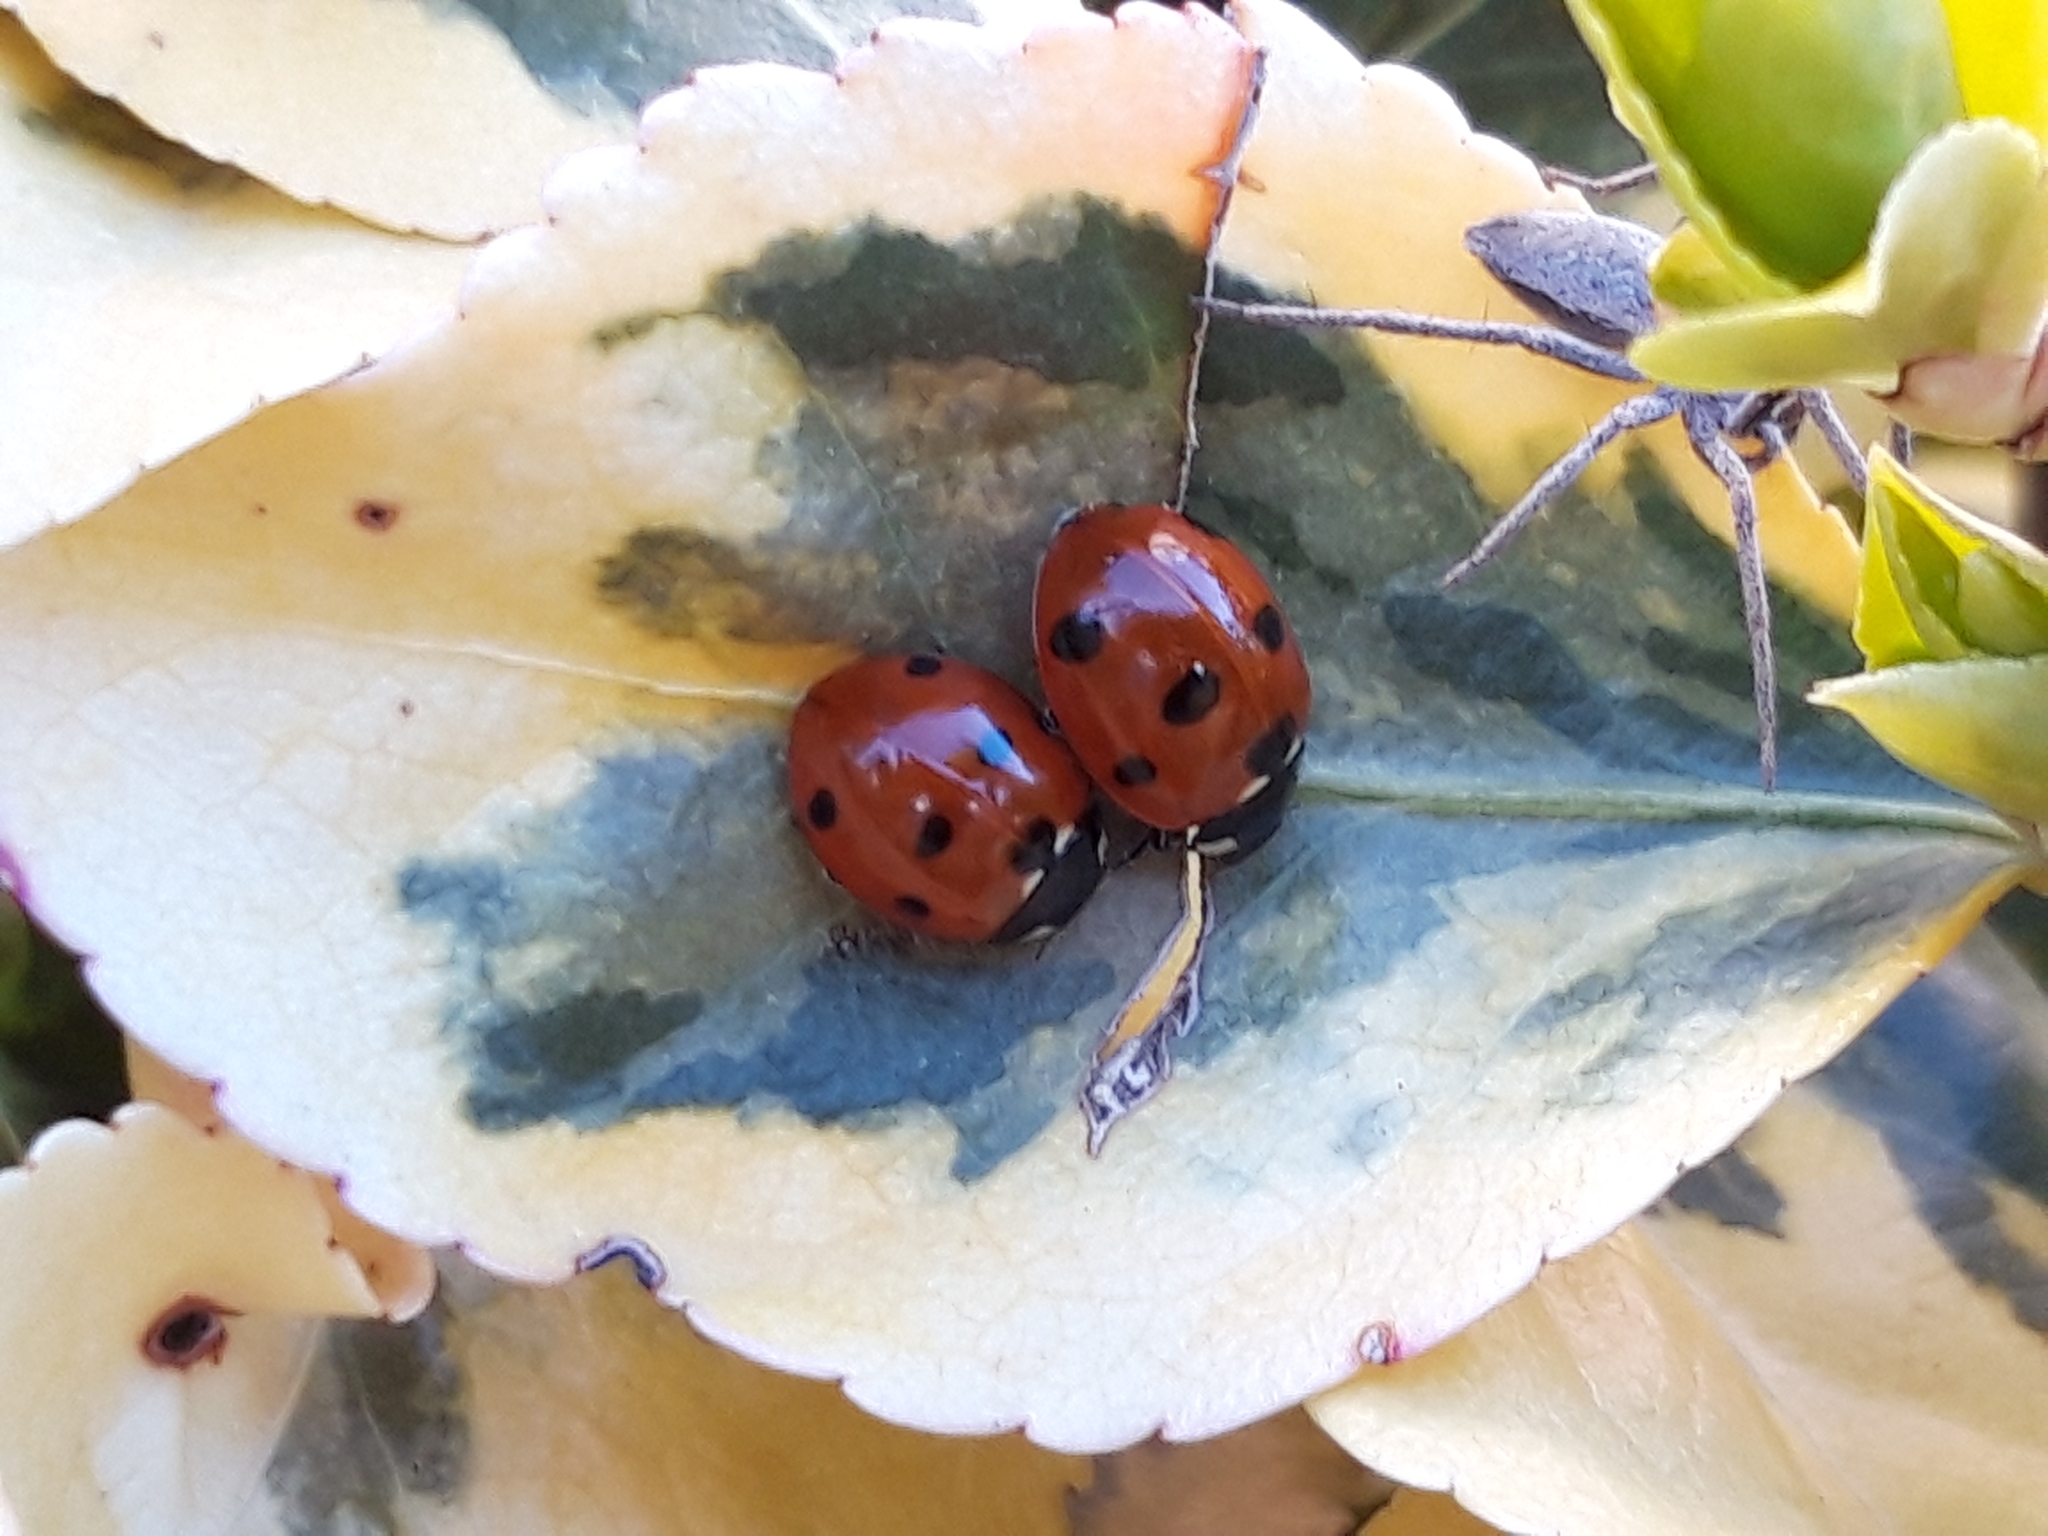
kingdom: Animalia
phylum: Arthropoda
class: Insecta
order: Coleoptera
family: Coccinellidae
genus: Coccinella
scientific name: Coccinella septempunctata
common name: Sevenspotted lady beetle
